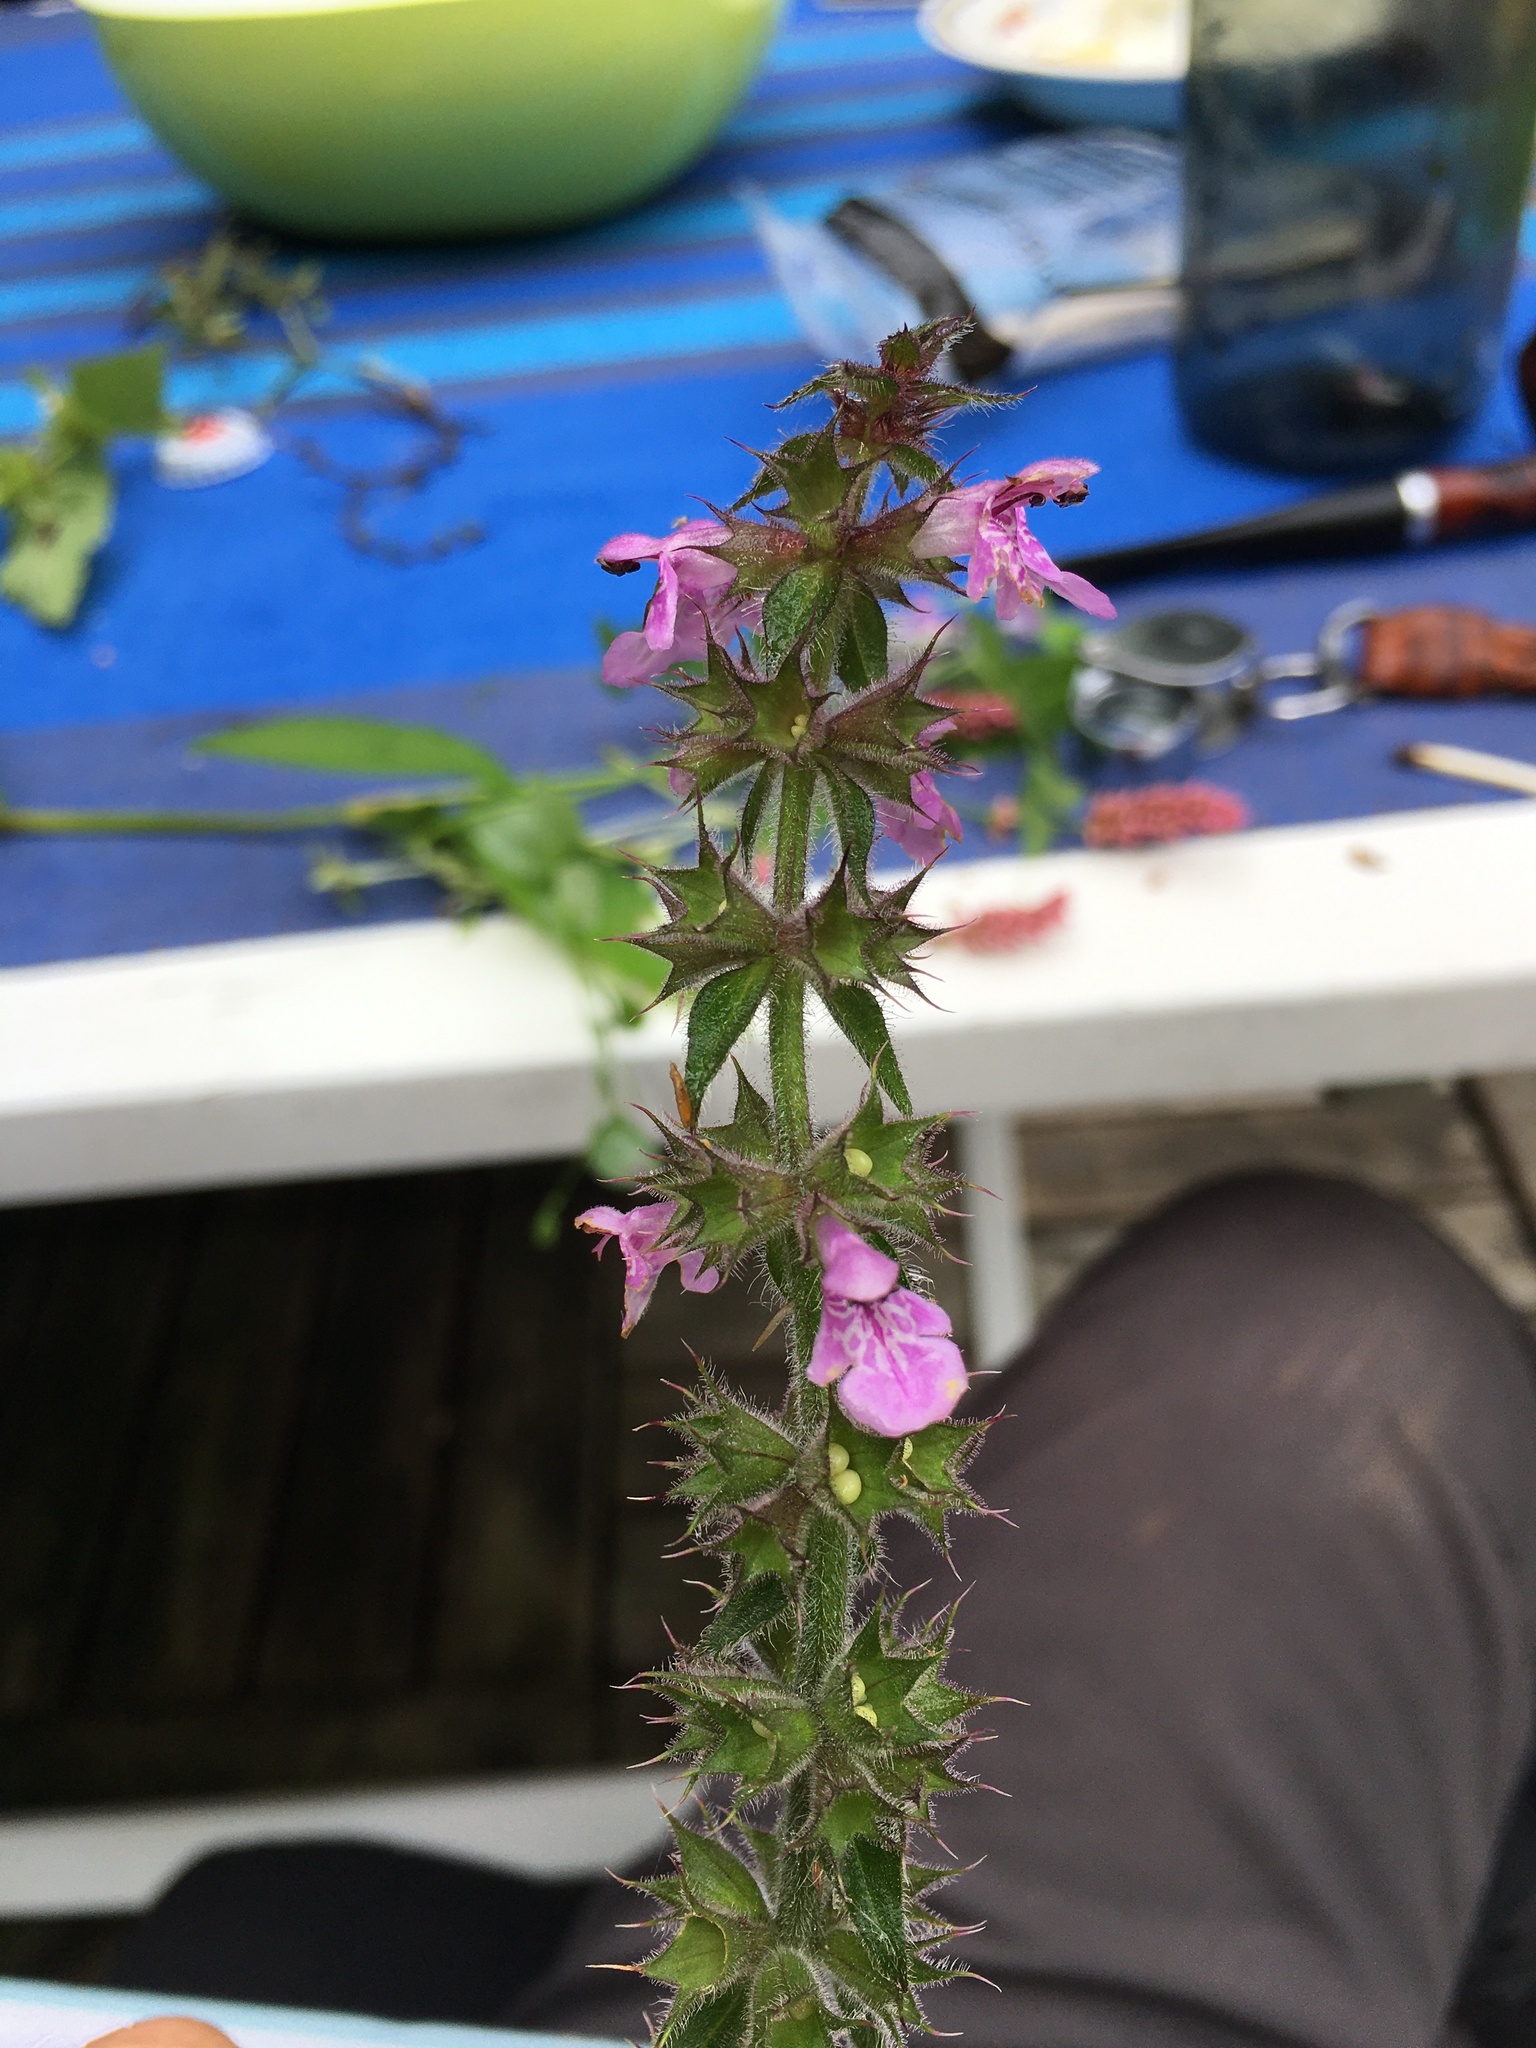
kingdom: Plantae
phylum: Tracheophyta
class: Magnoliopsida
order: Lamiales
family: Lamiaceae
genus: Stachys
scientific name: Stachys palustris
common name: Marsh woundwort
